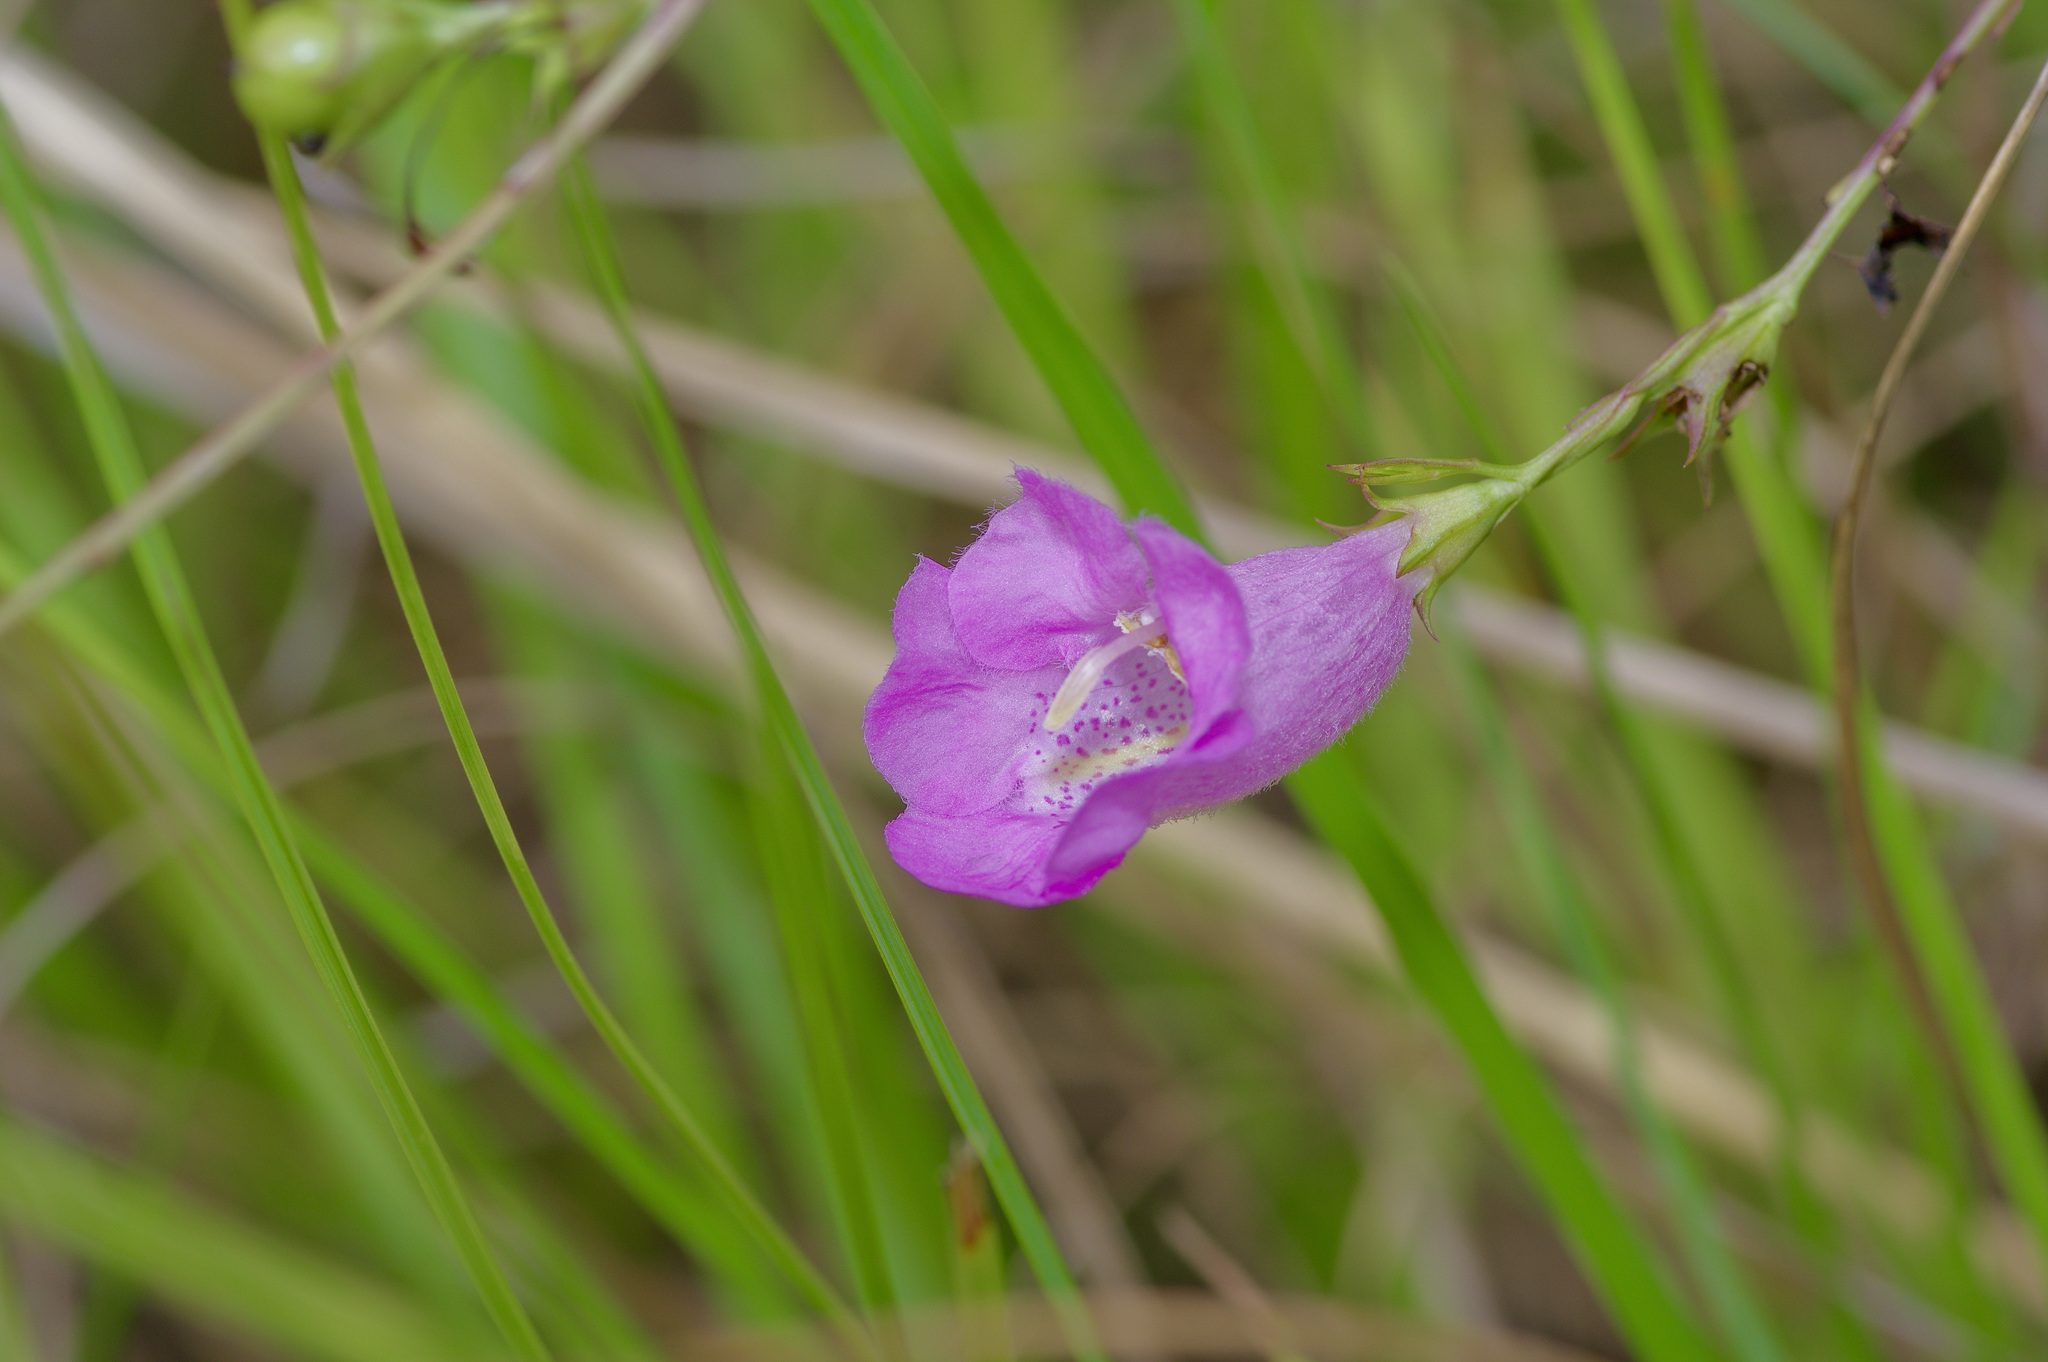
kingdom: Plantae
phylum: Tracheophyta
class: Magnoliopsida
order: Lamiales
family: Orobanchaceae
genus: Agalinis
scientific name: Agalinis heterophylla
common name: Prairie agalinis
